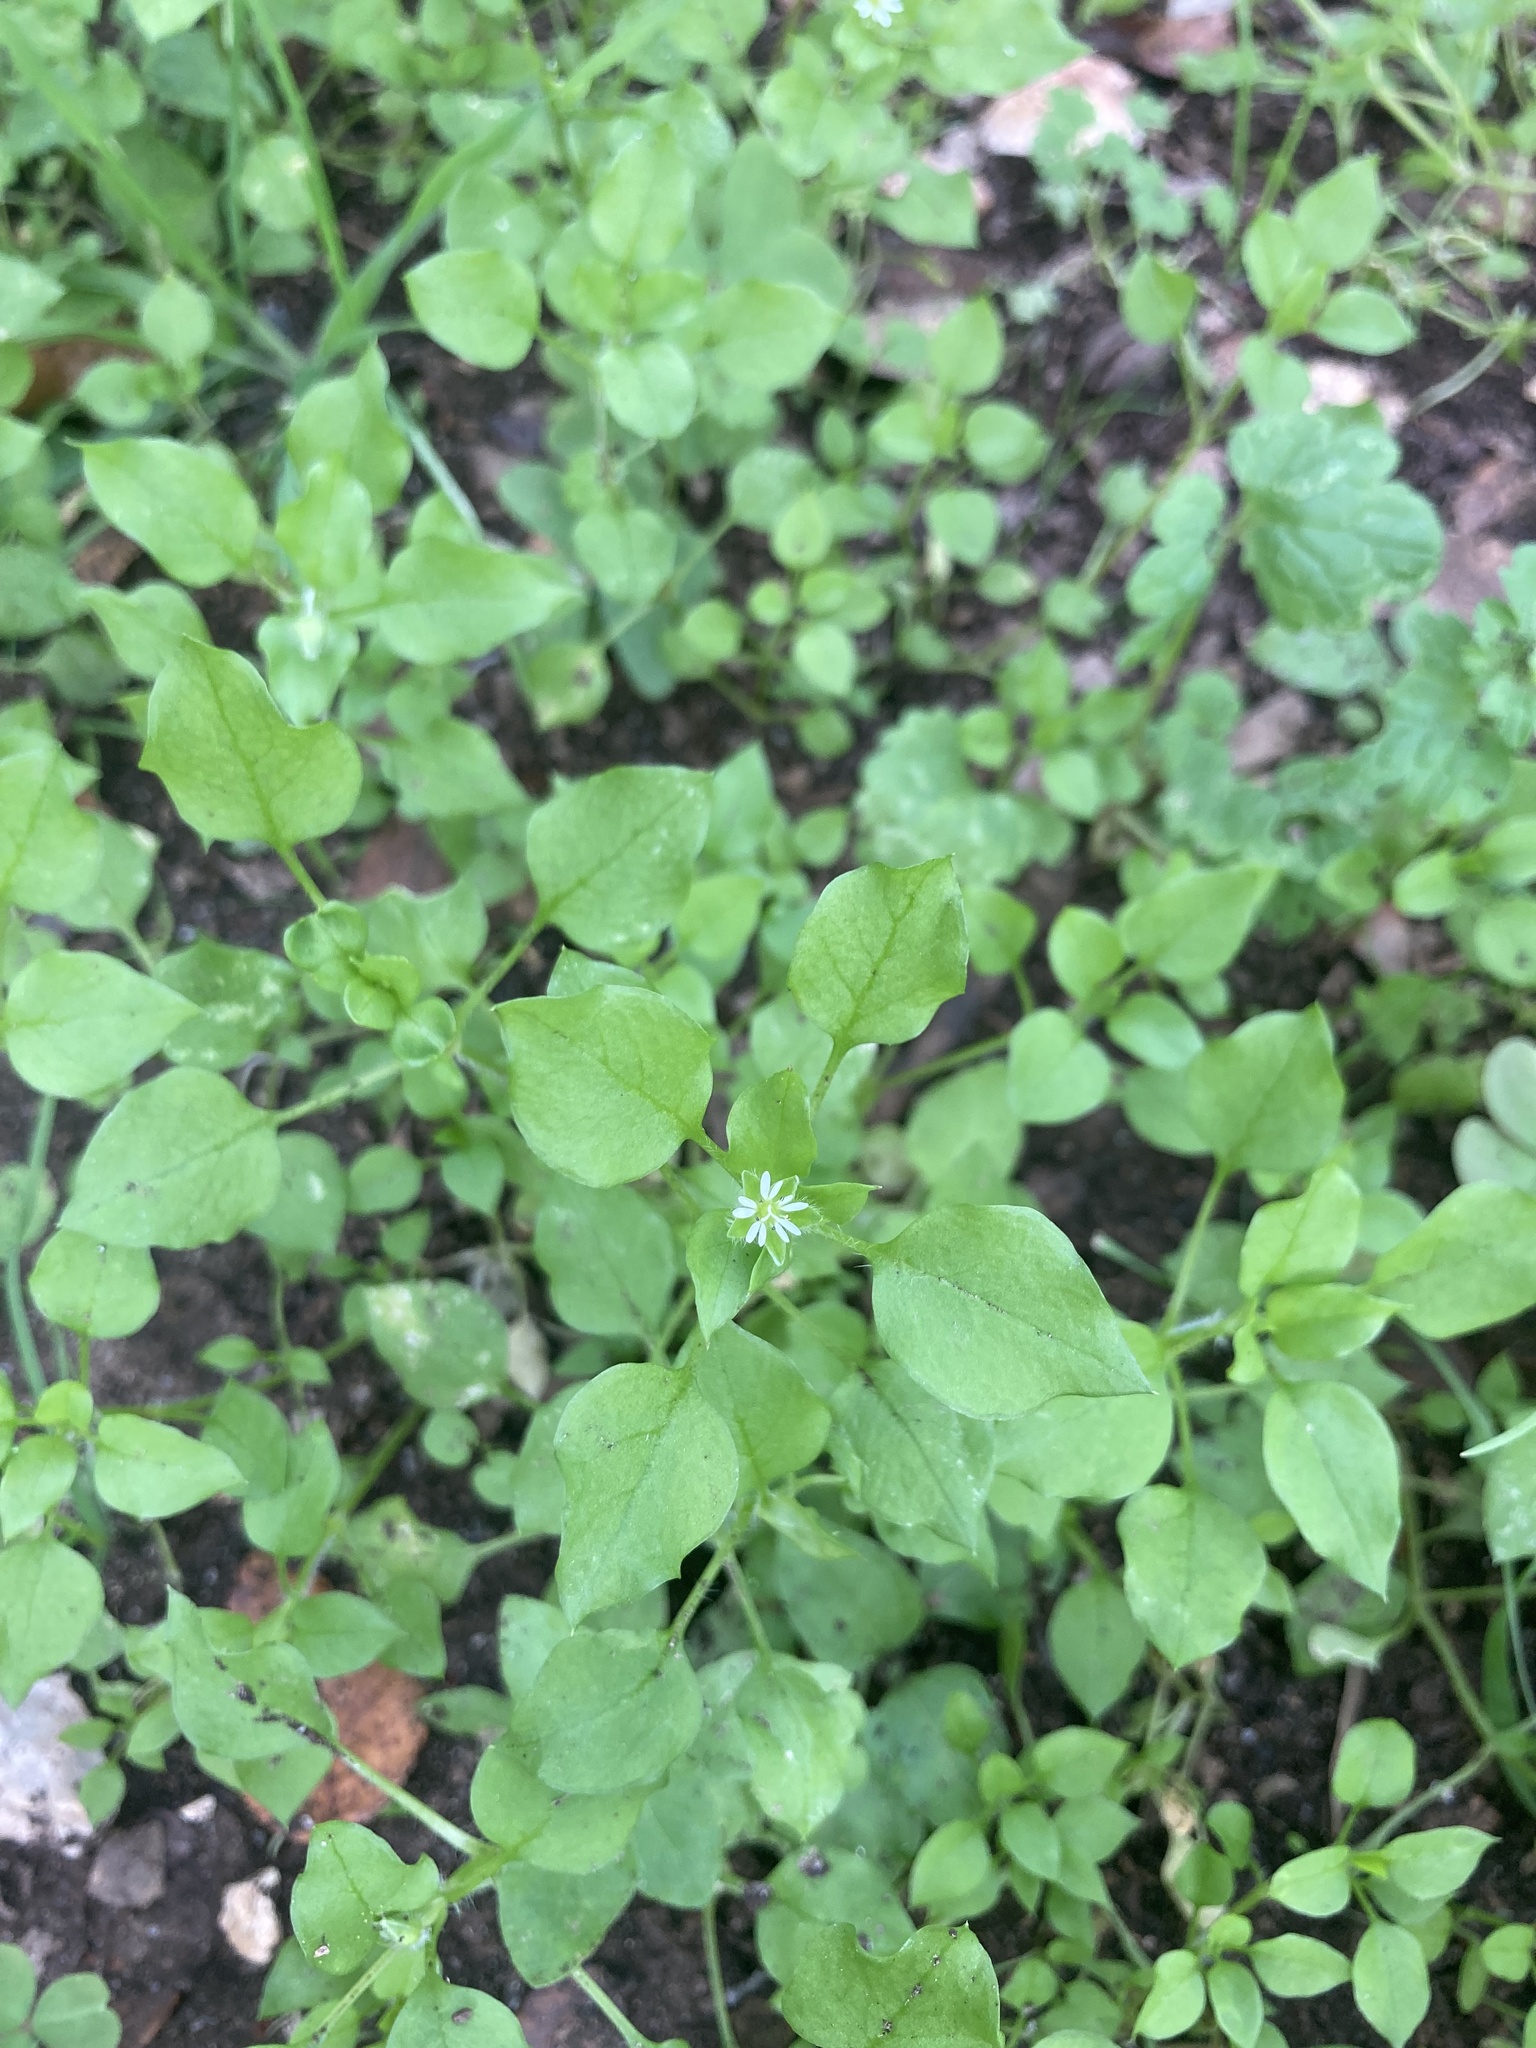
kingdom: Plantae
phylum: Tracheophyta
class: Magnoliopsida
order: Caryophyllales
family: Caryophyllaceae
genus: Stellaria
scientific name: Stellaria media
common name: Common chickweed
